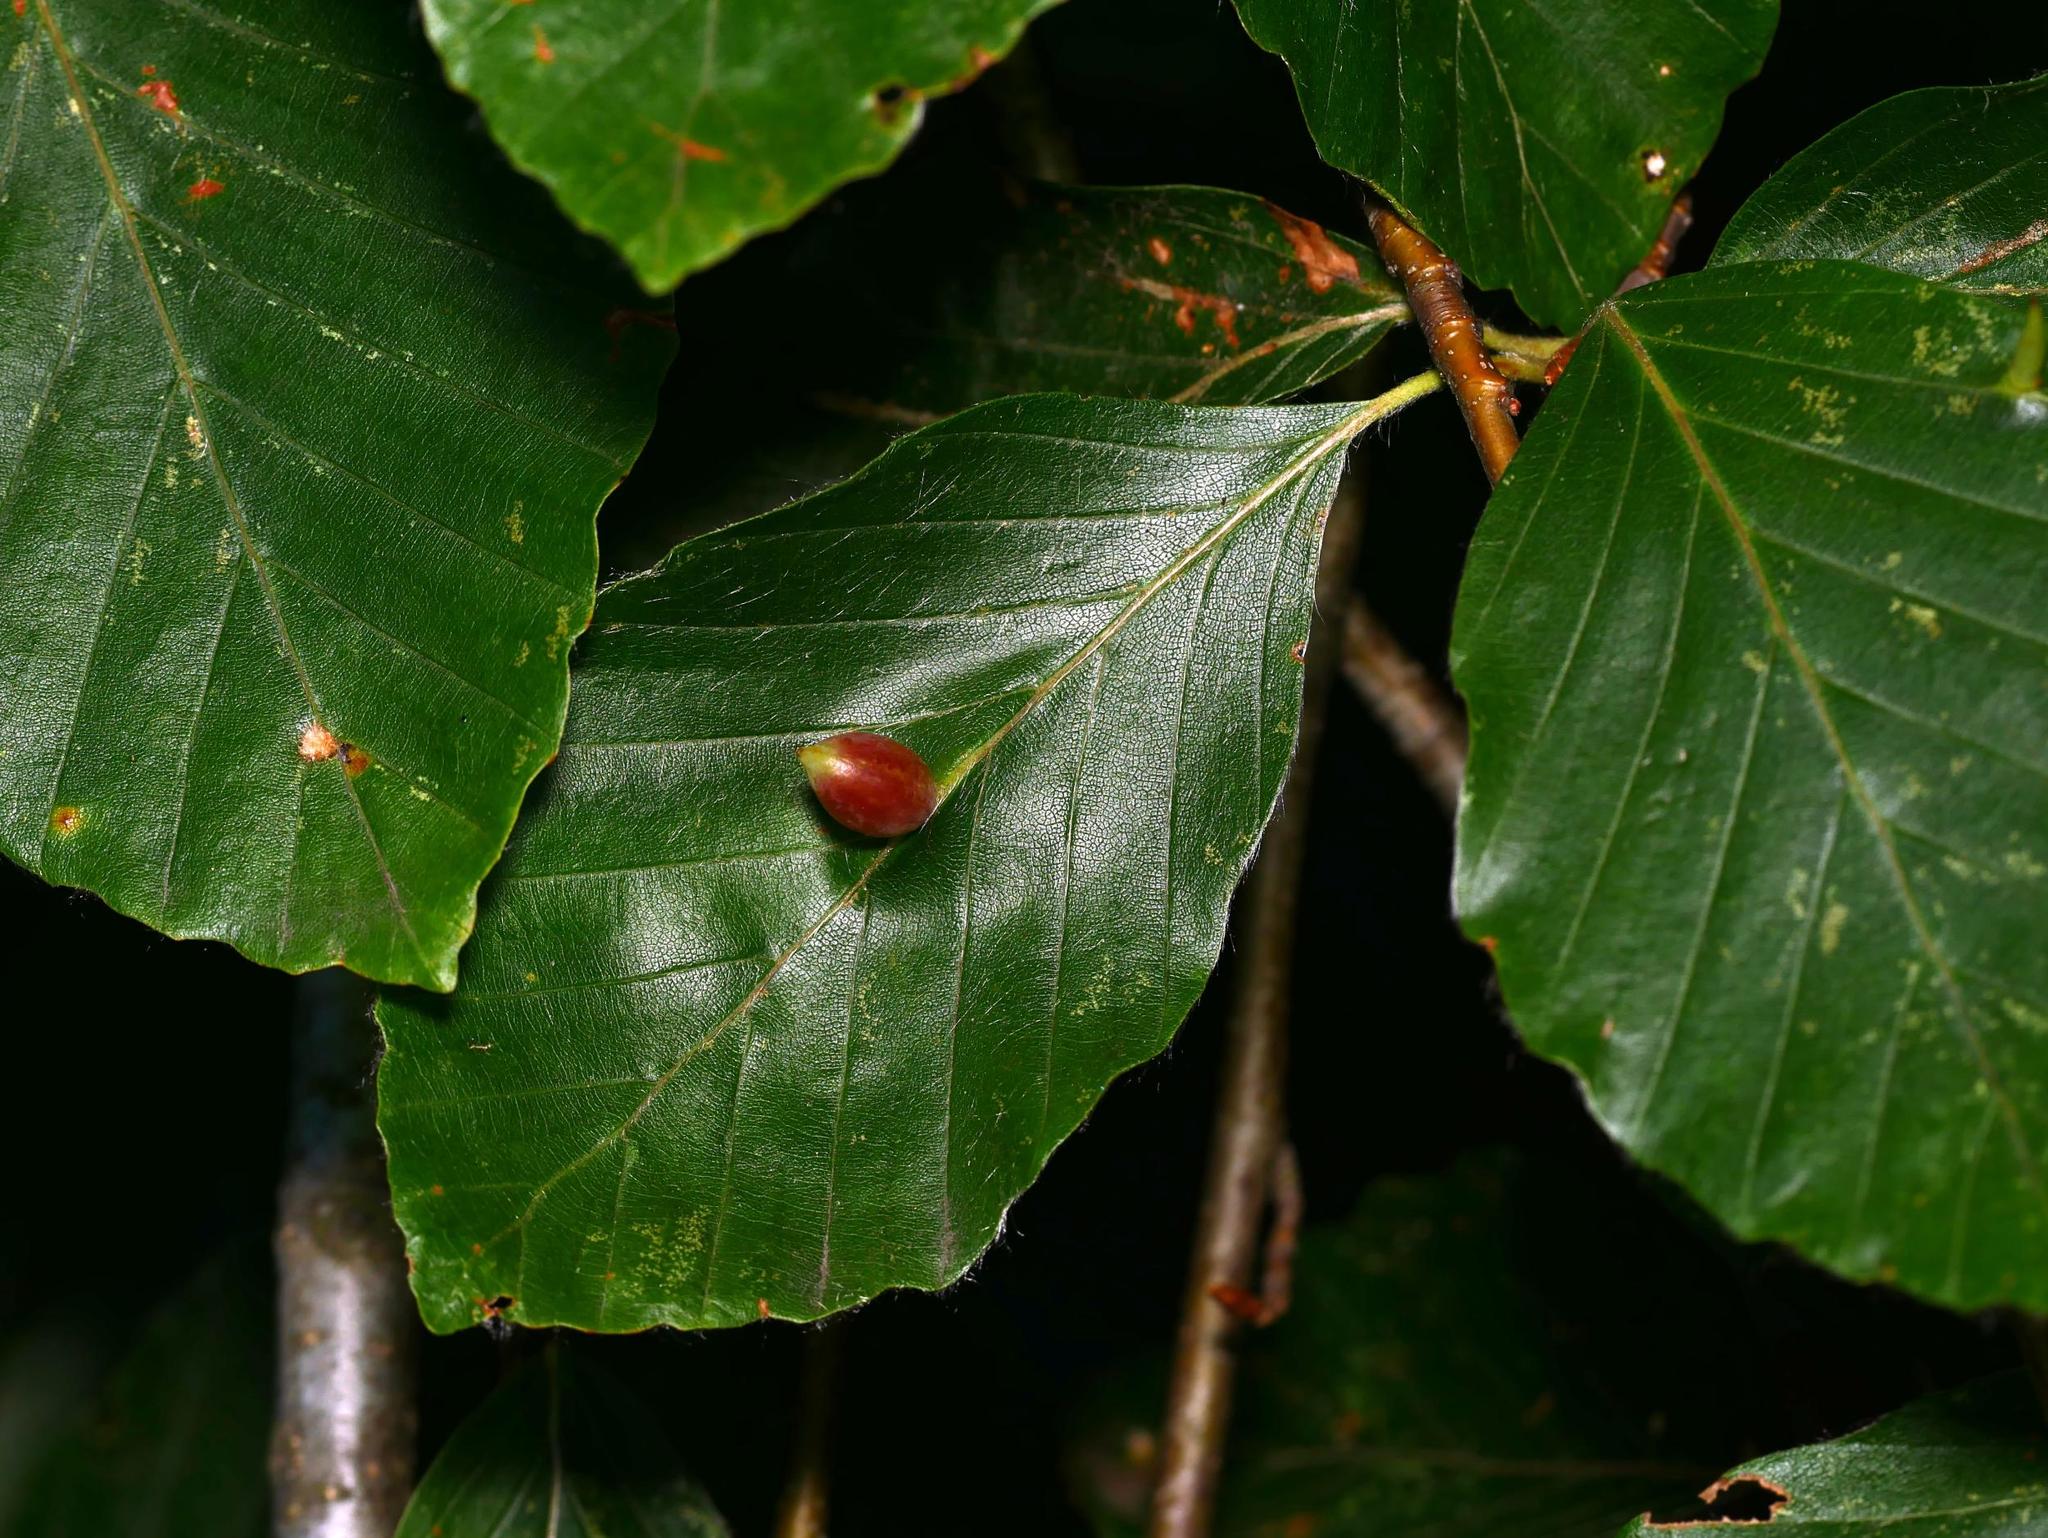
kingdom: Animalia
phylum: Arthropoda
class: Insecta
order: Diptera
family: Cecidomyiidae
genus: Mikiola
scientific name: Mikiola fagi
